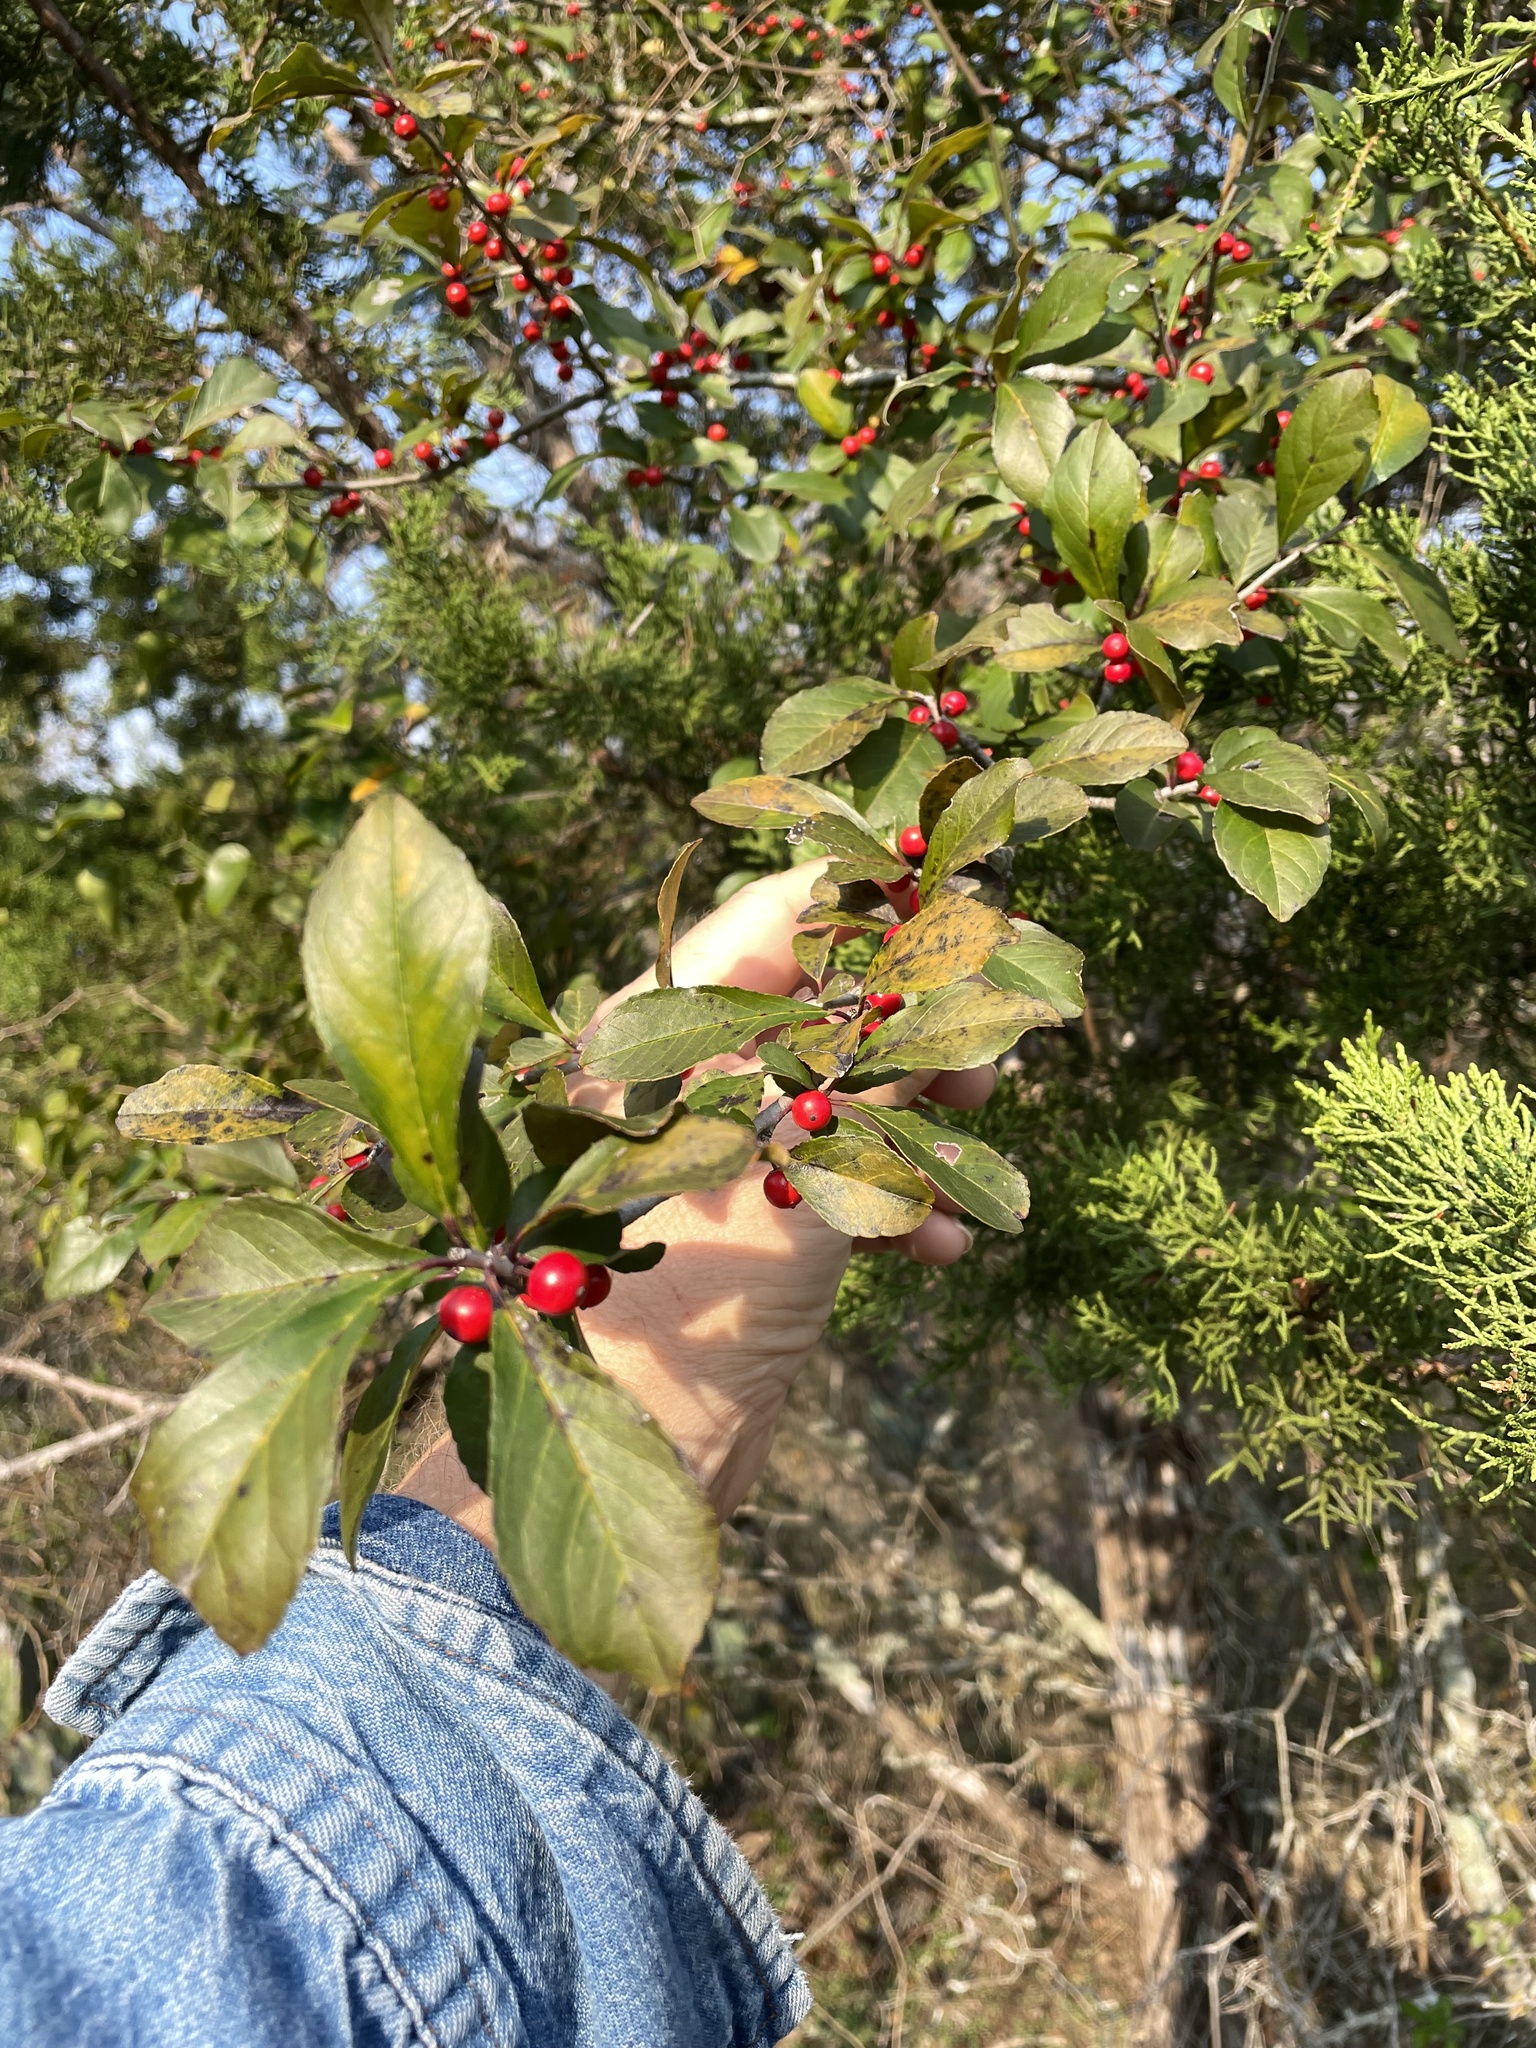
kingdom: Plantae
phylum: Tracheophyta
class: Magnoliopsida
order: Aquifoliales
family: Aquifoliaceae
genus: Ilex
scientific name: Ilex decidua
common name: Possum-haw
